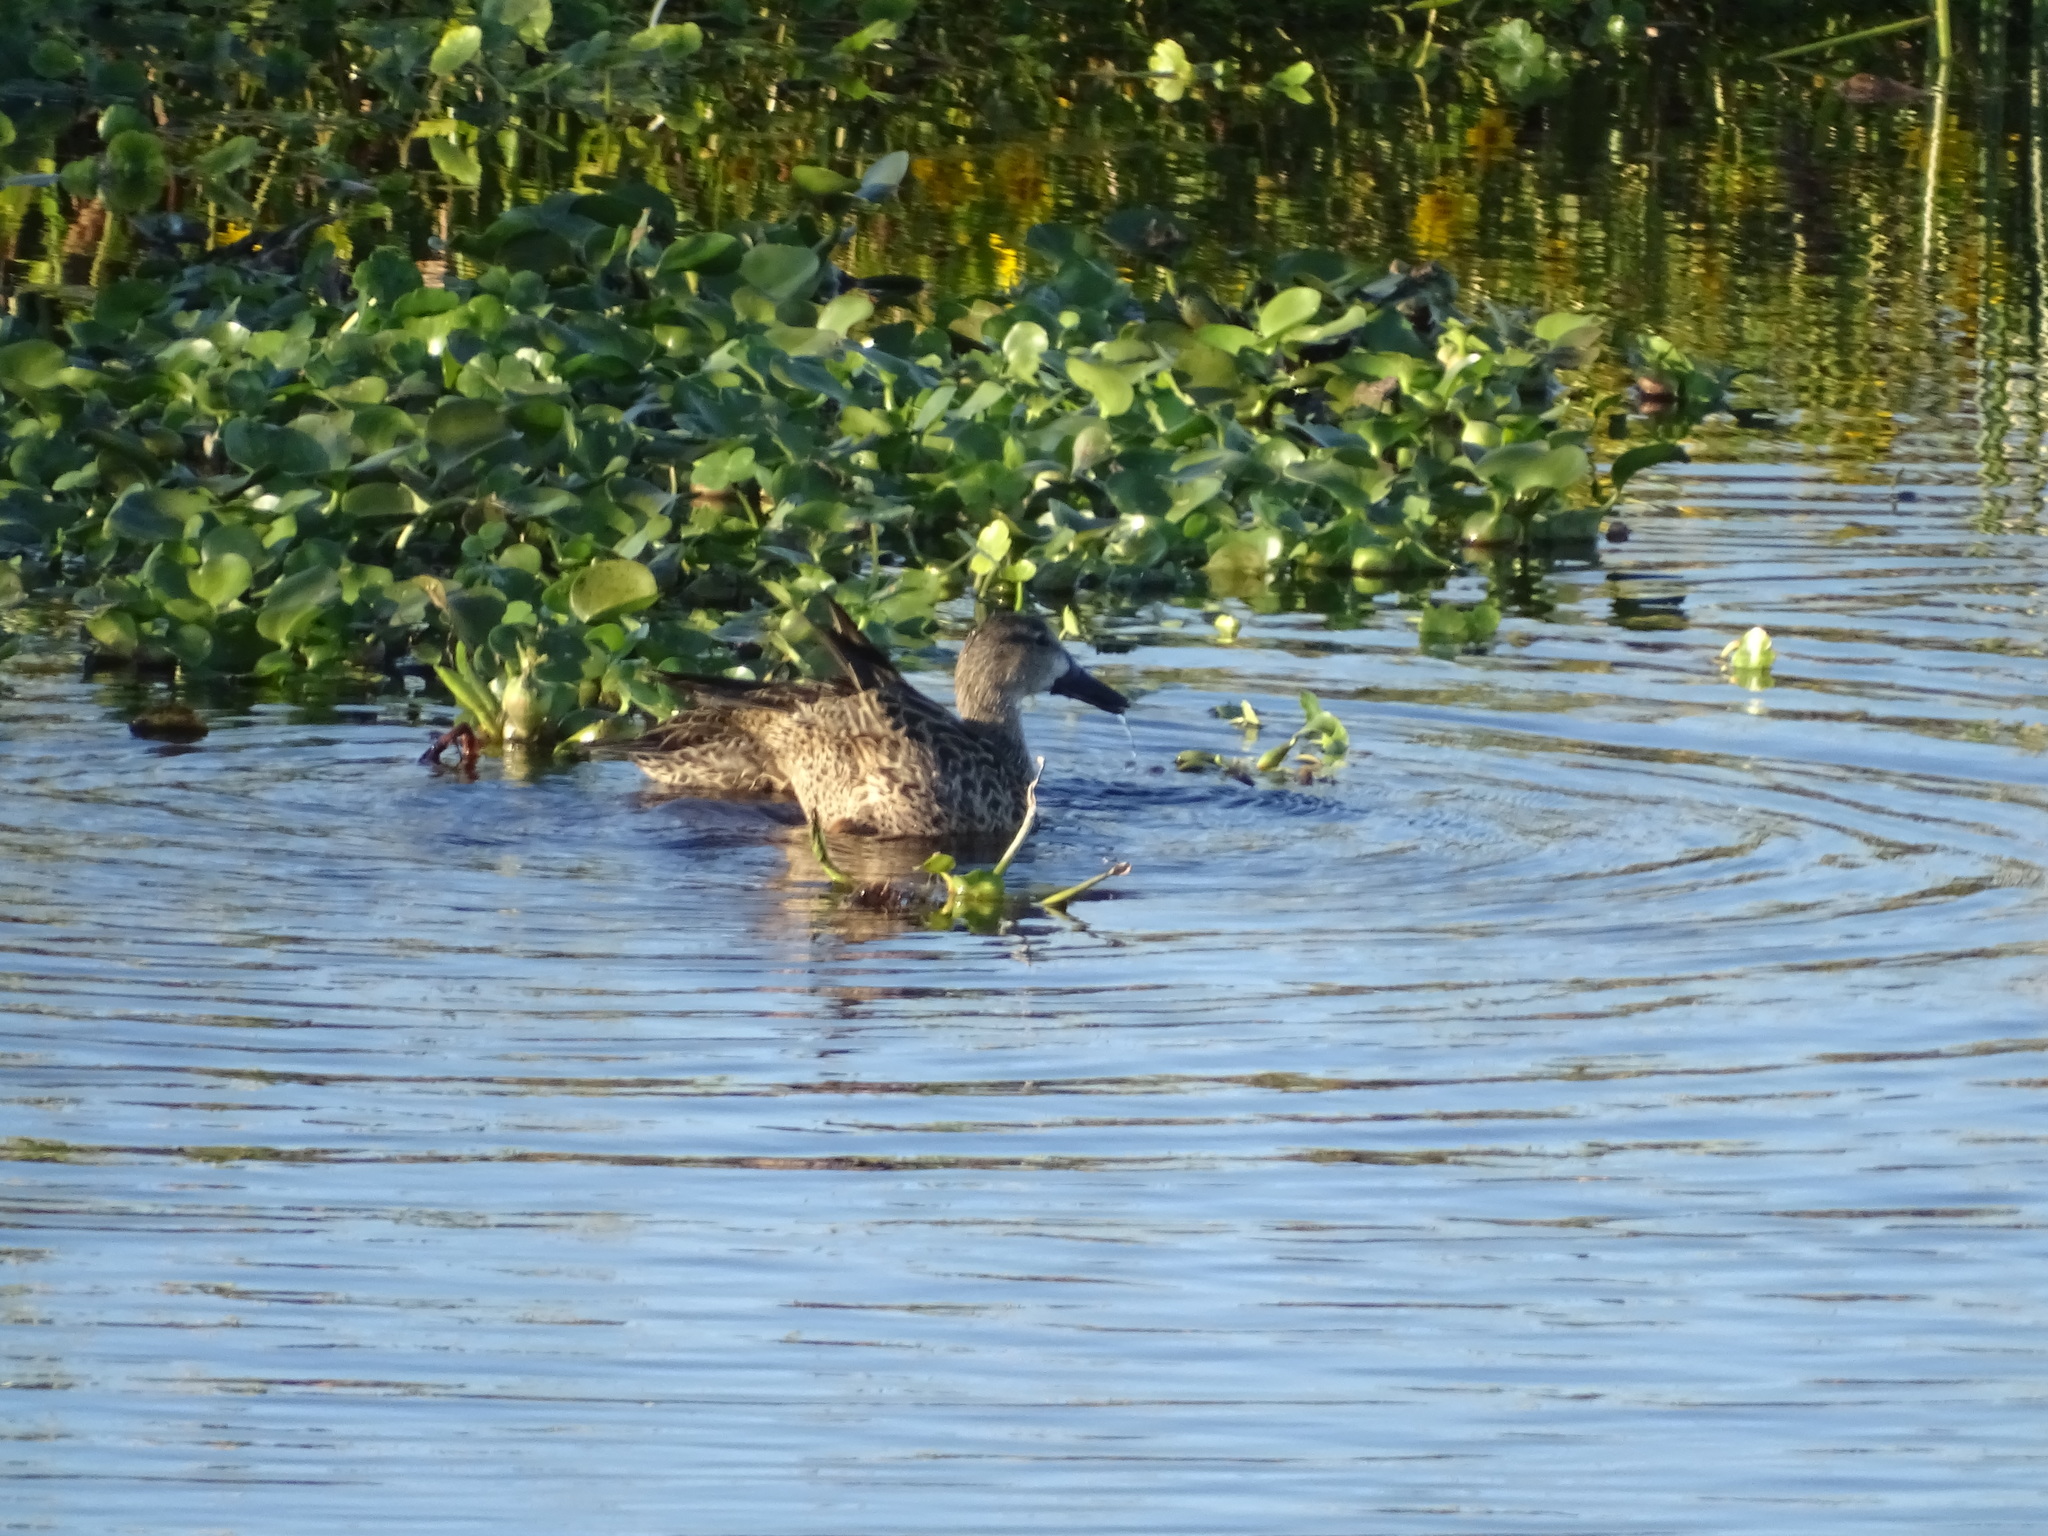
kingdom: Animalia
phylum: Chordata
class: Aves
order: Anseriformes
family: Anatidae
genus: Spatula
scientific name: Spatula discors
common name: Blue-winged teal
